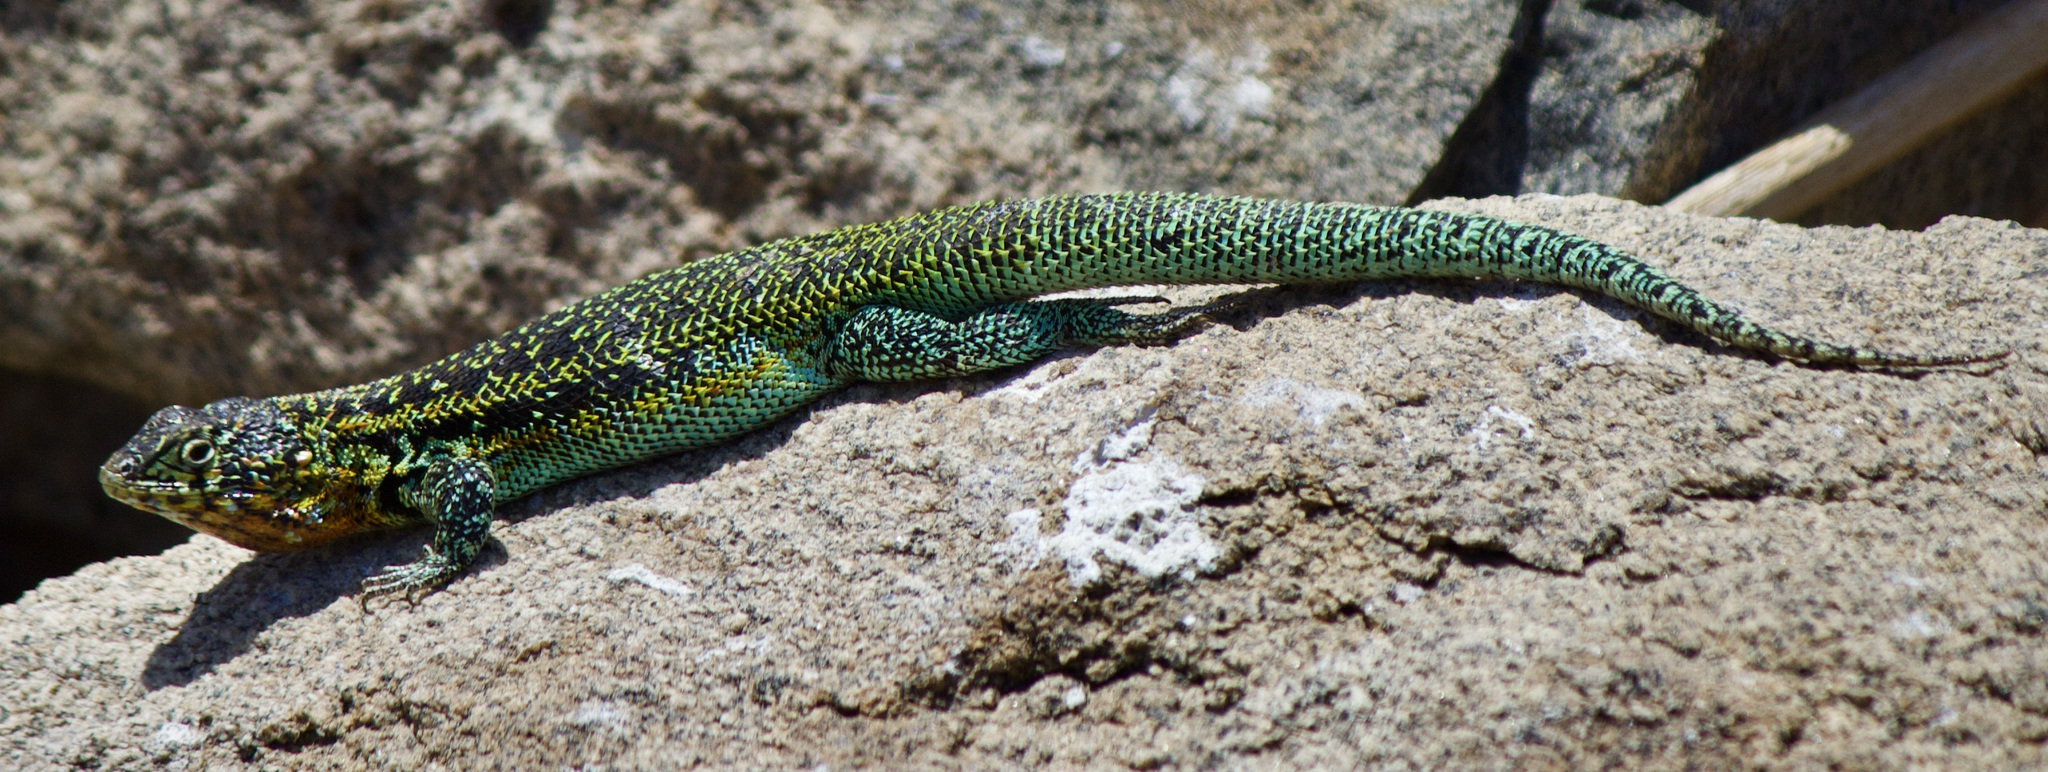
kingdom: Animalia
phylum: Chordata
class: Squamata
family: Liolaemidae
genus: Liolaemus
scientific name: Liolaemus zapallarensis
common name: Zapallaren tree iguana
